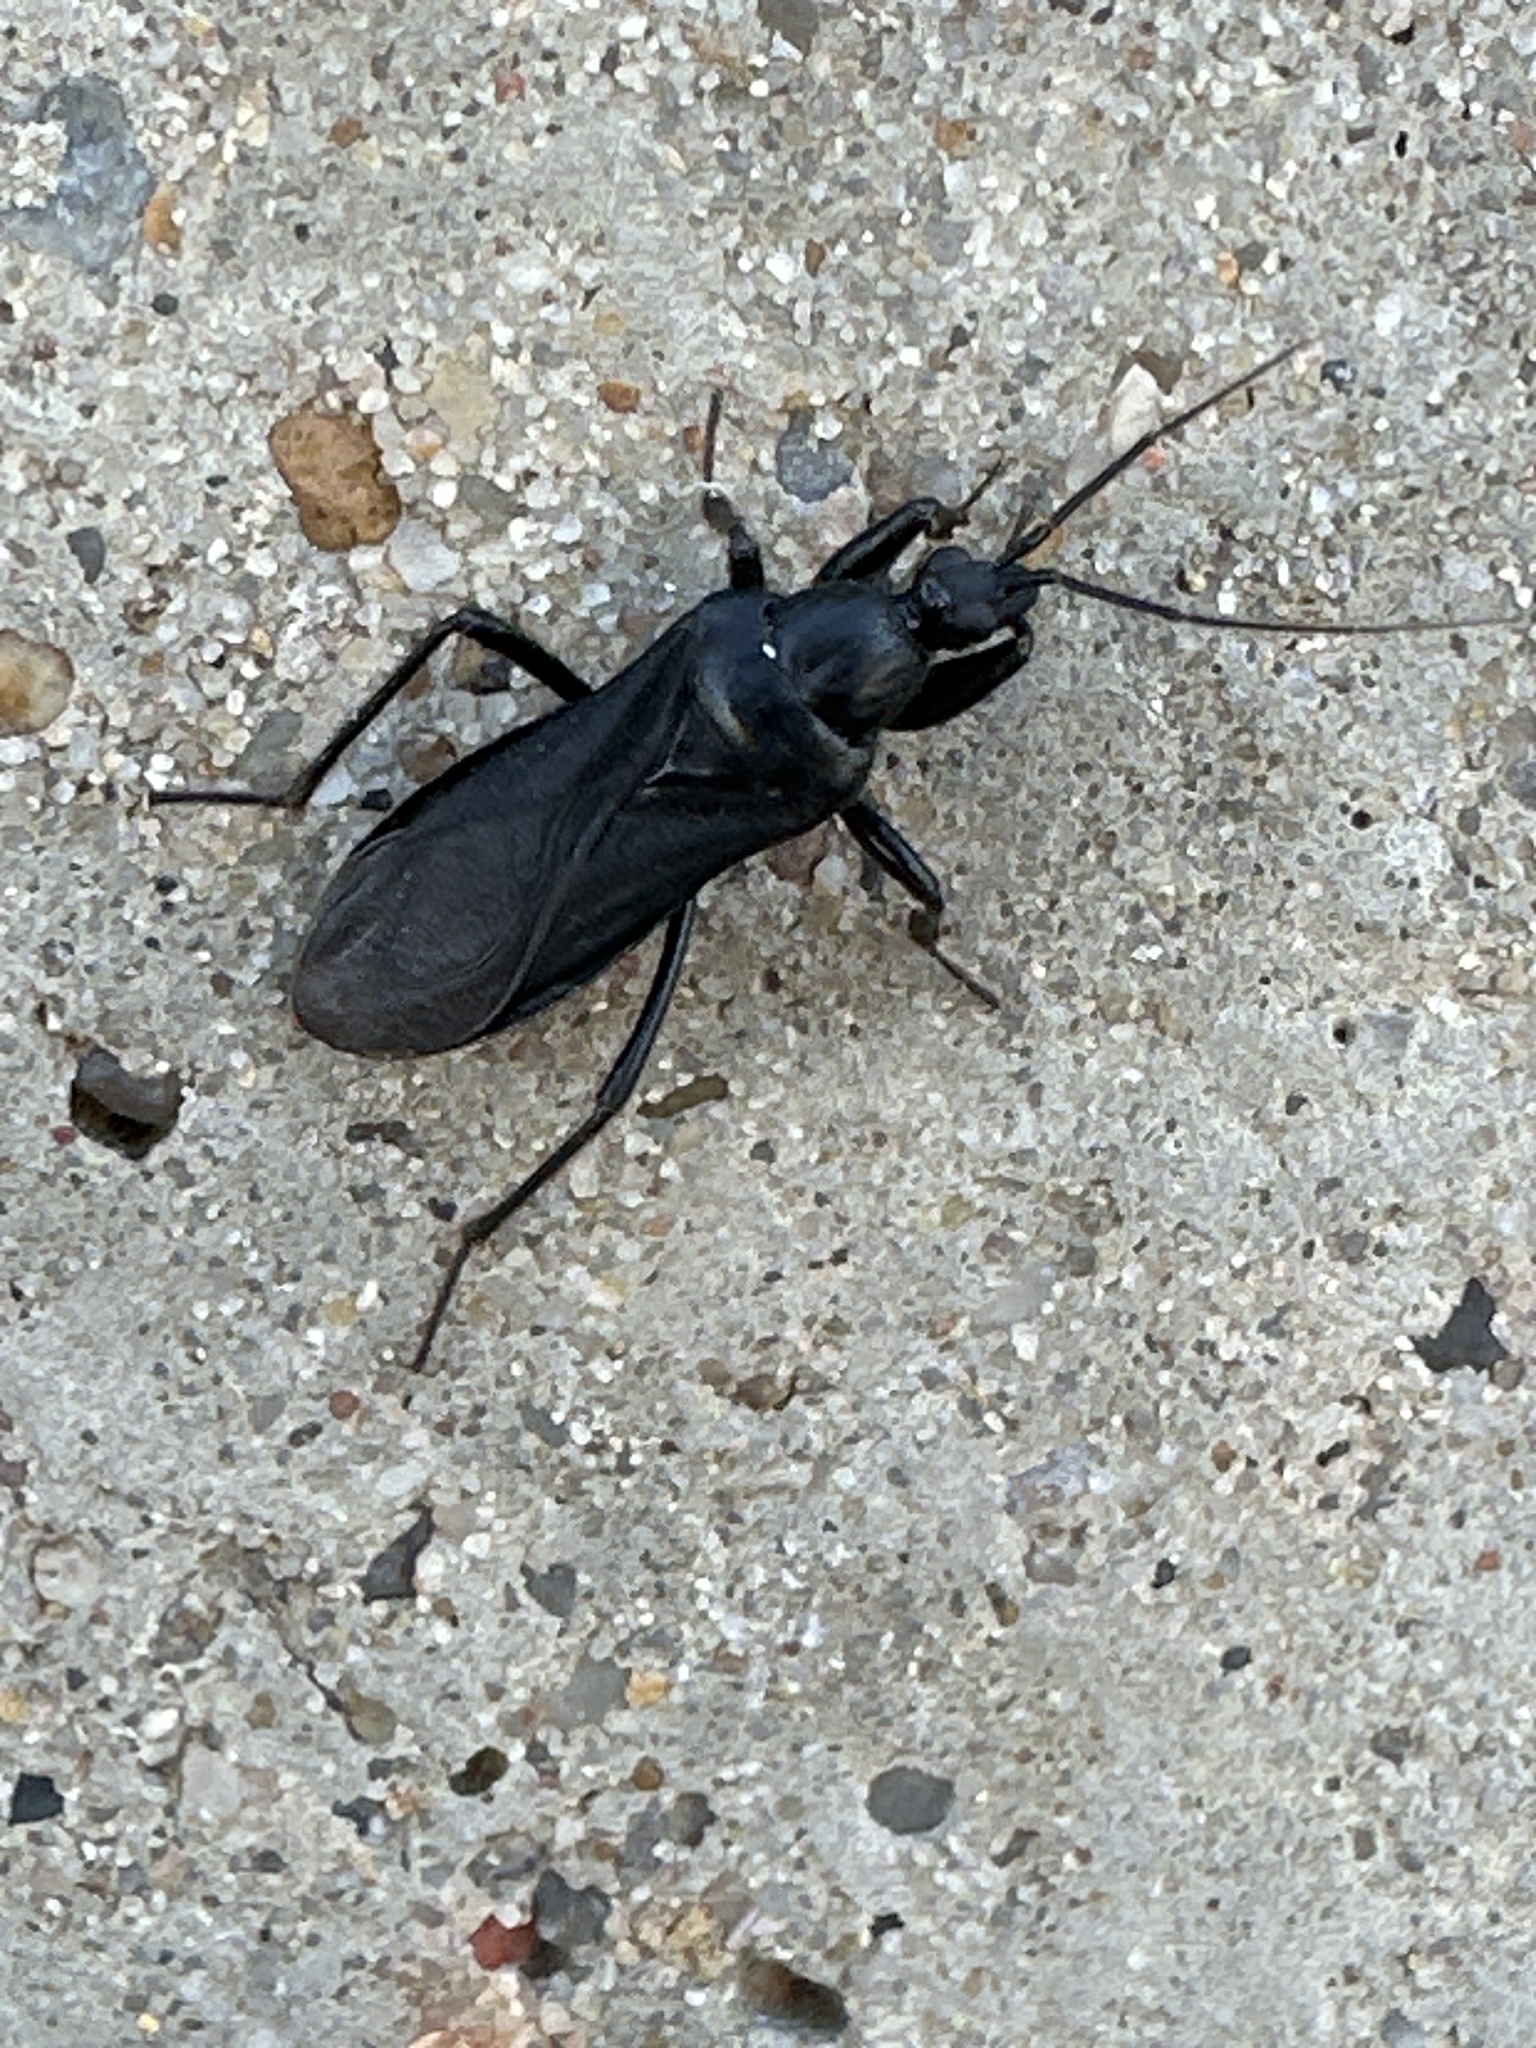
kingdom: Animalia
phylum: Arthropoda
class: Insecta
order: Hemiptera
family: Reduviidae
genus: Melanolestes
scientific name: Melanolestes picipes
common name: Assassin bug
